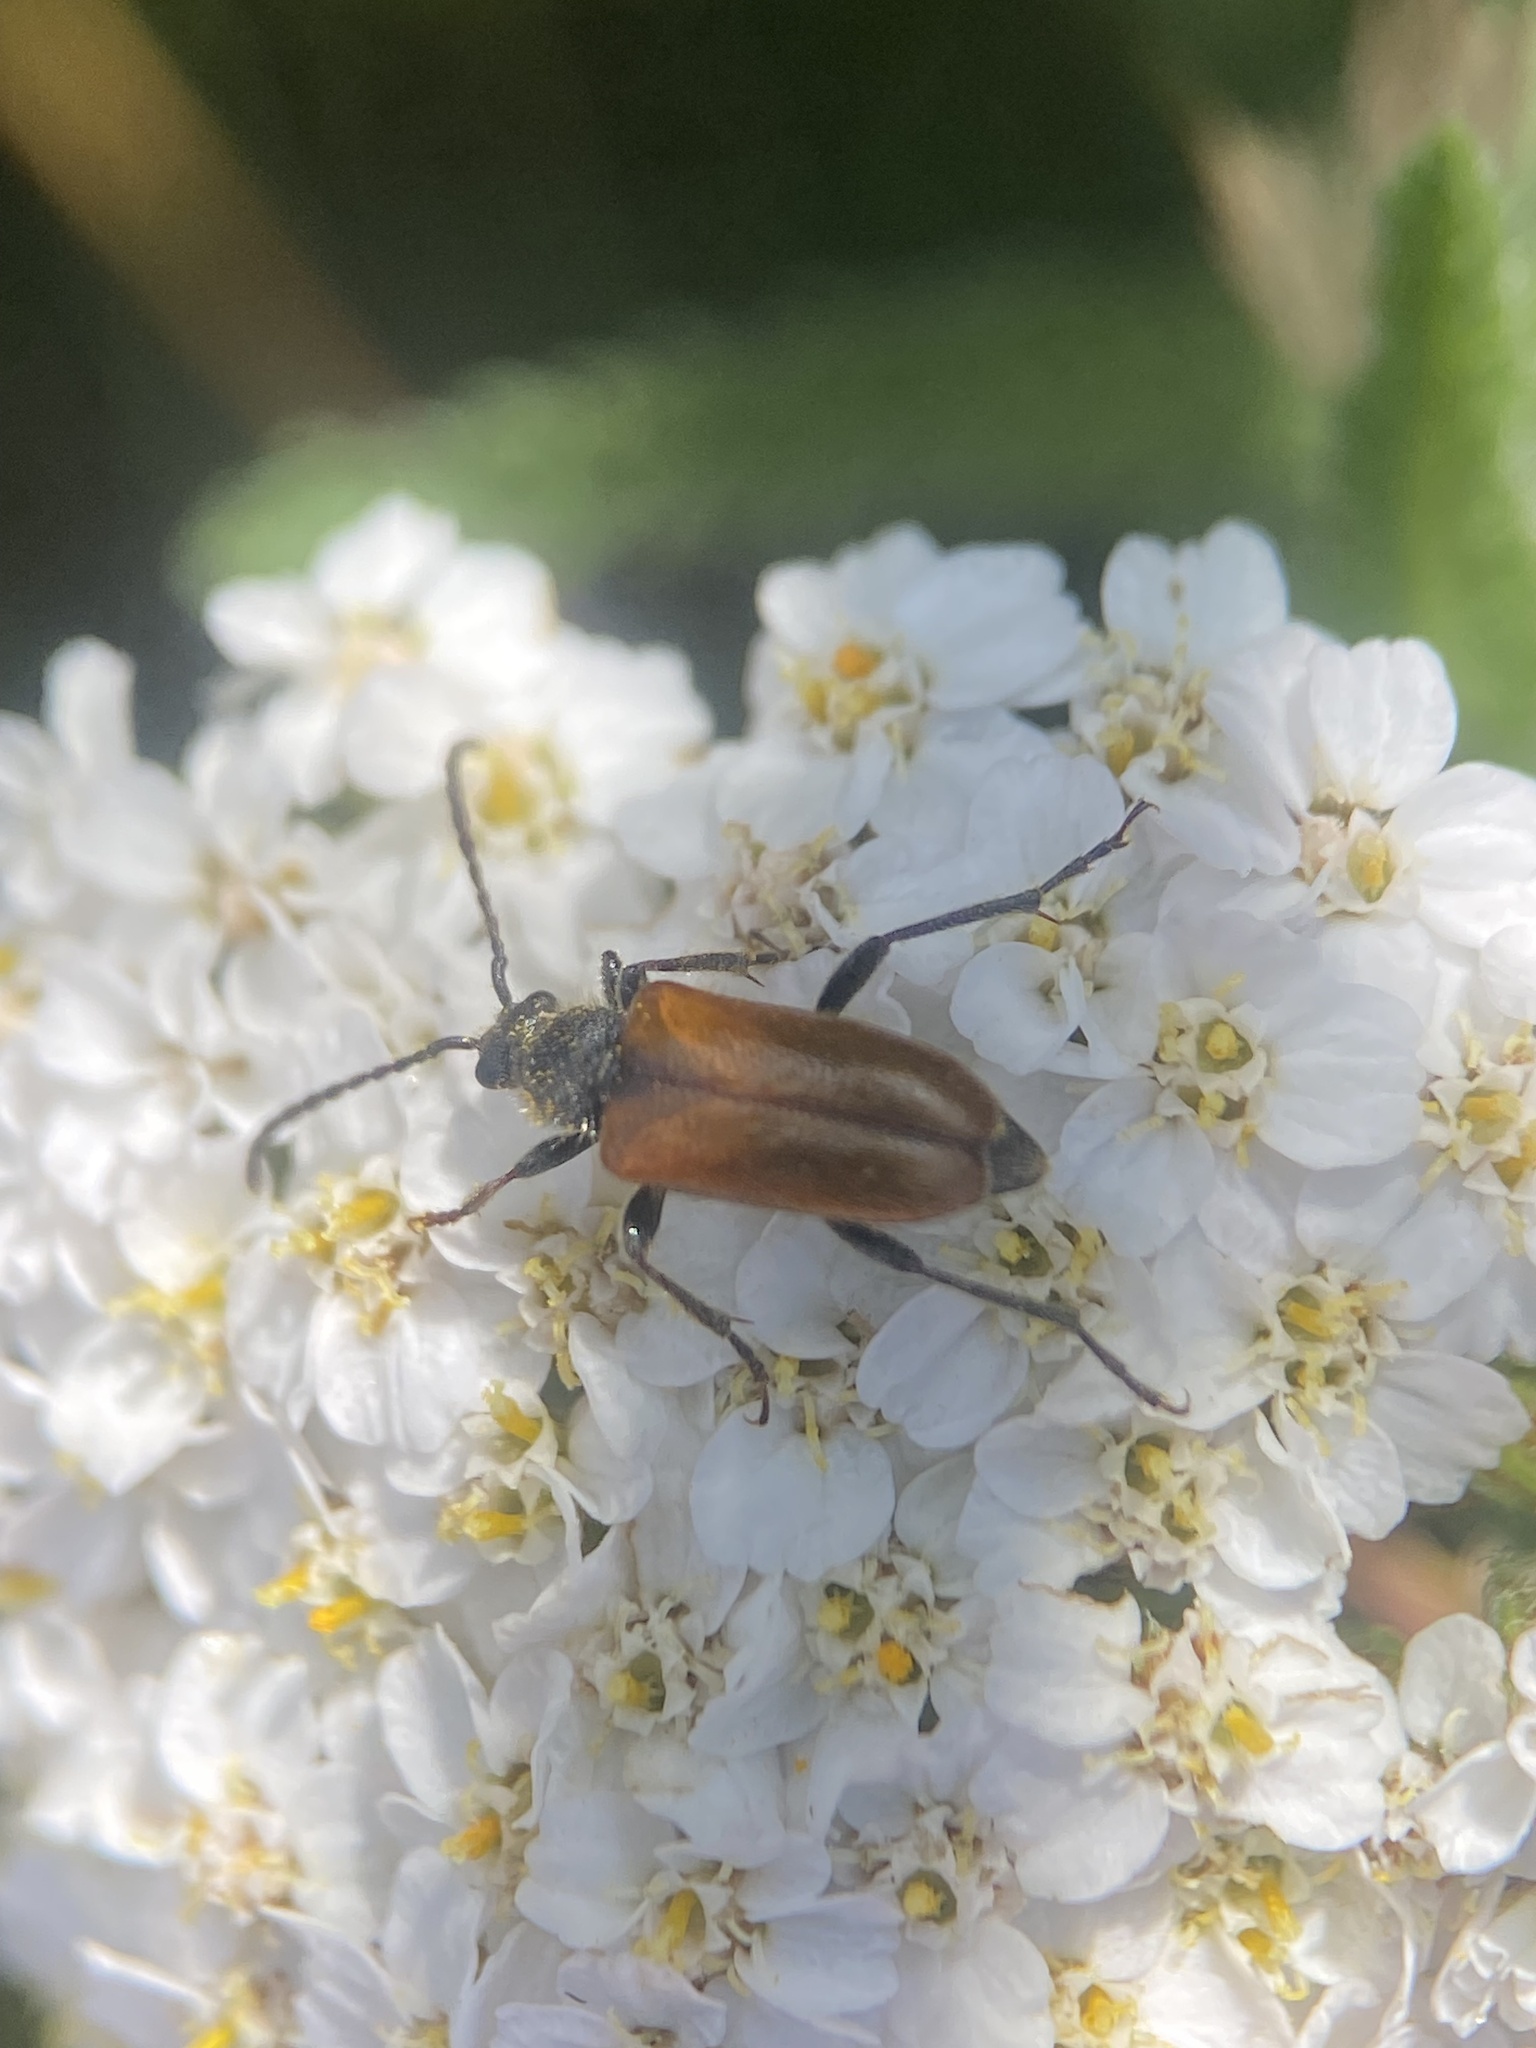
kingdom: Animalia
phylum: Arthropoda
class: Insecta
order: Coleoptera
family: Cerambycidae
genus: Pseudovadonia
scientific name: Pseudovadonia livida
